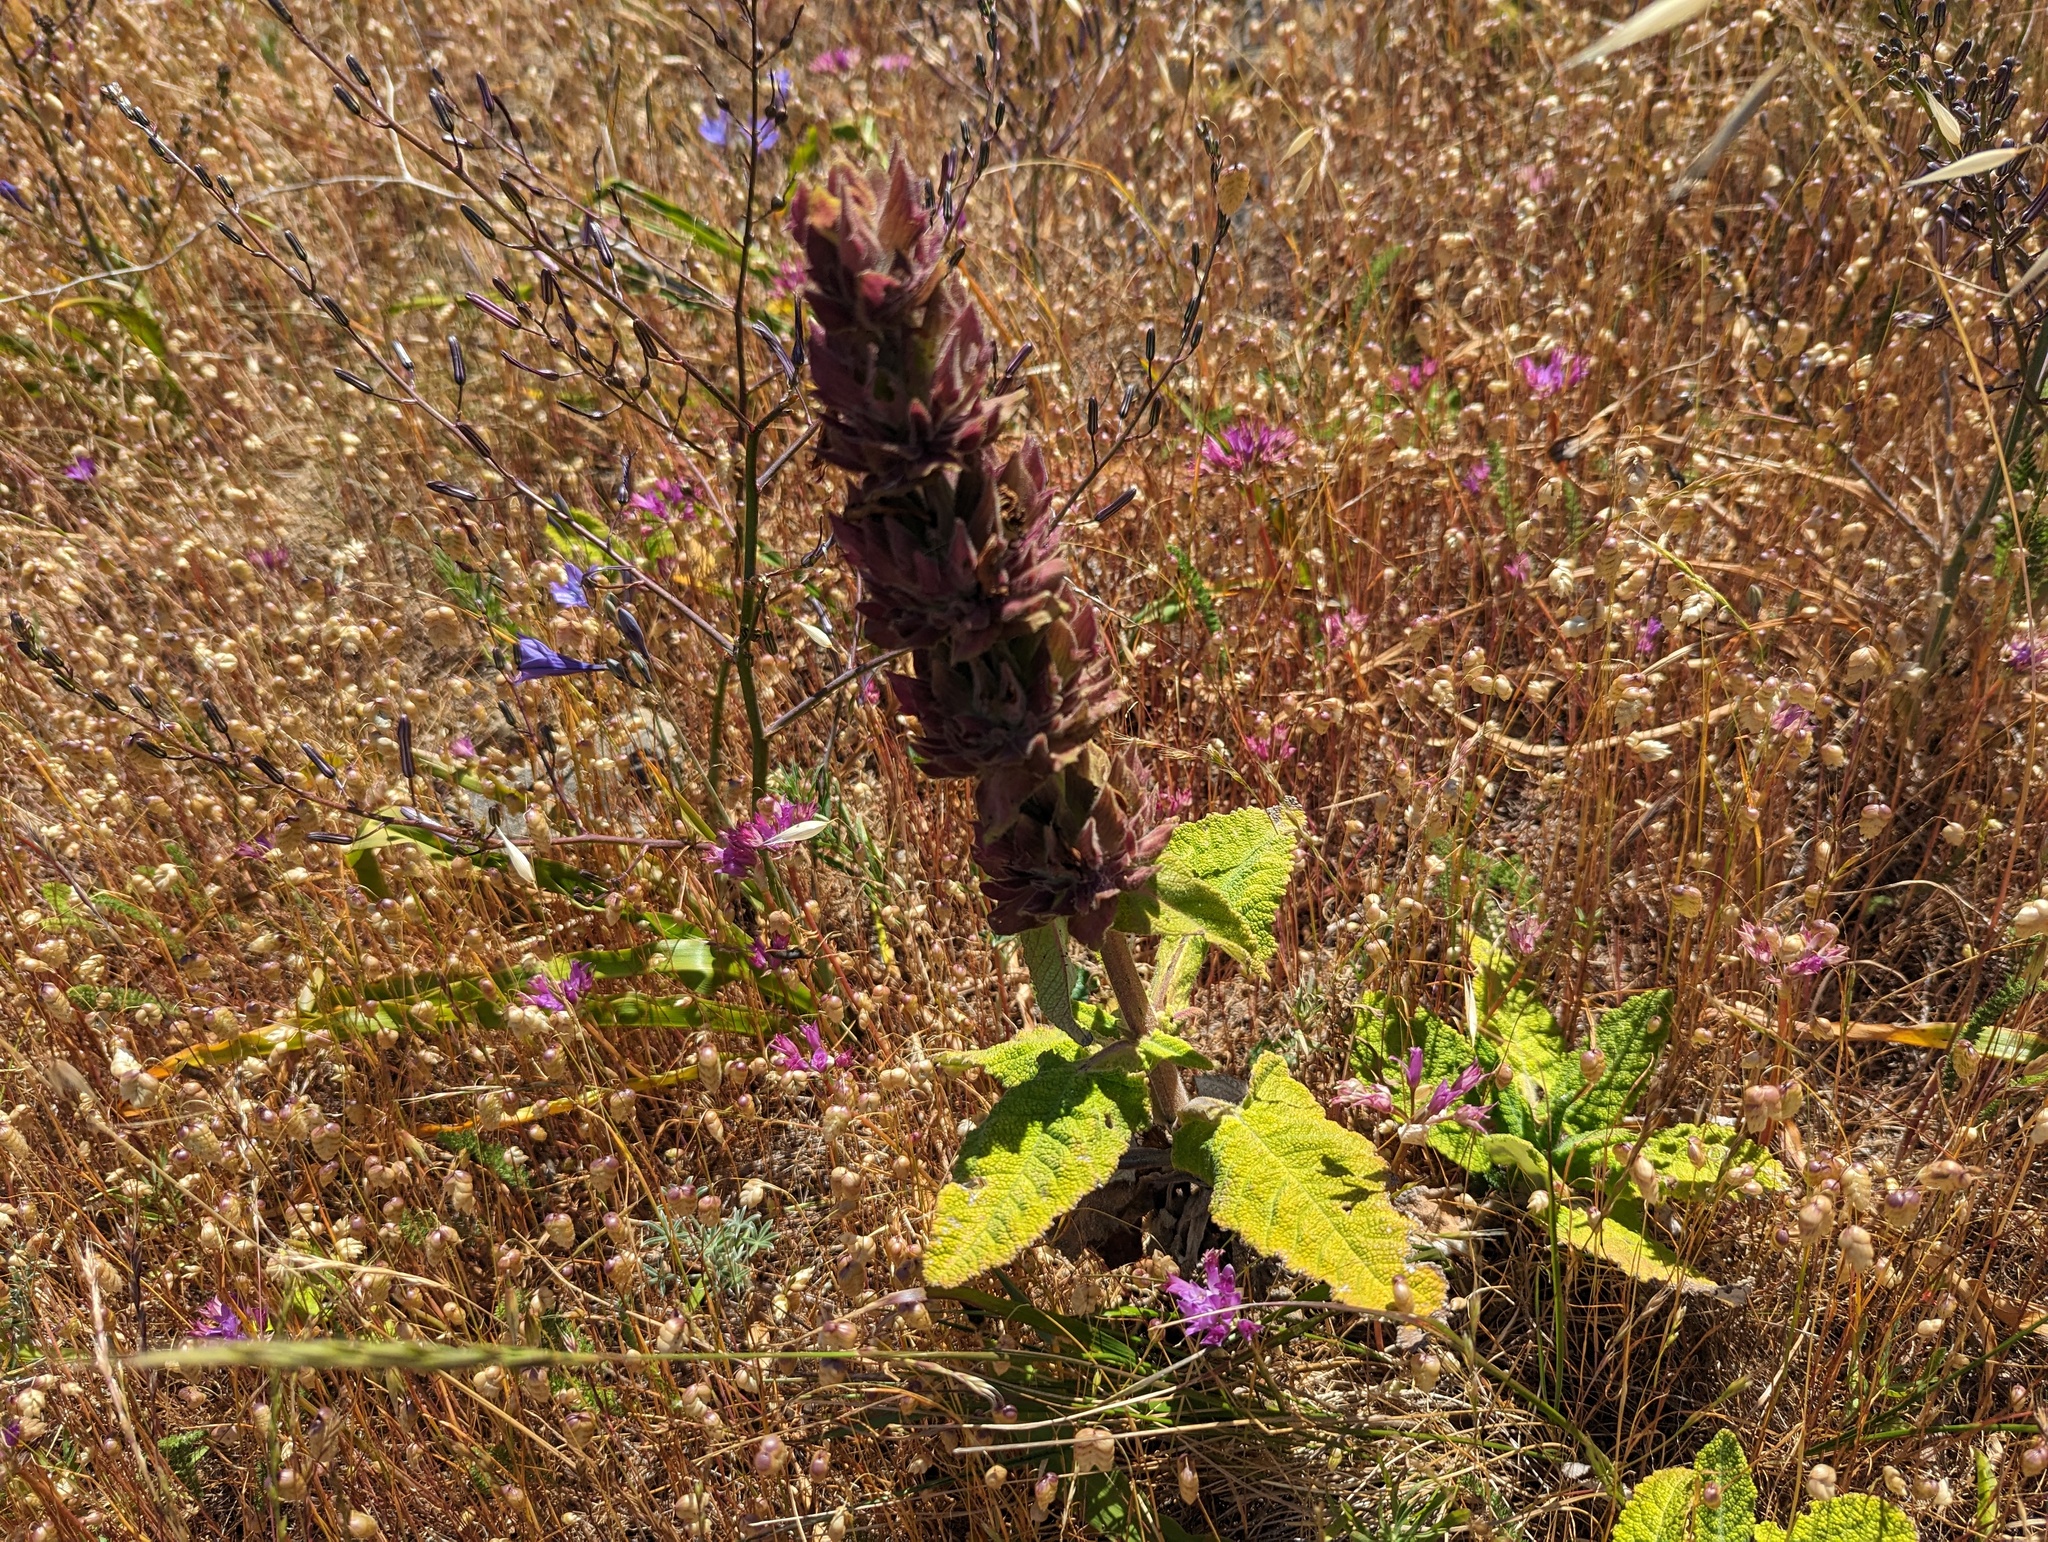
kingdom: Plantae
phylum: Tracheophyta
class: Magnoliopsida
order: Lamiales
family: Lamiaceae
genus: Salvia
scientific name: Salvia spathacea
